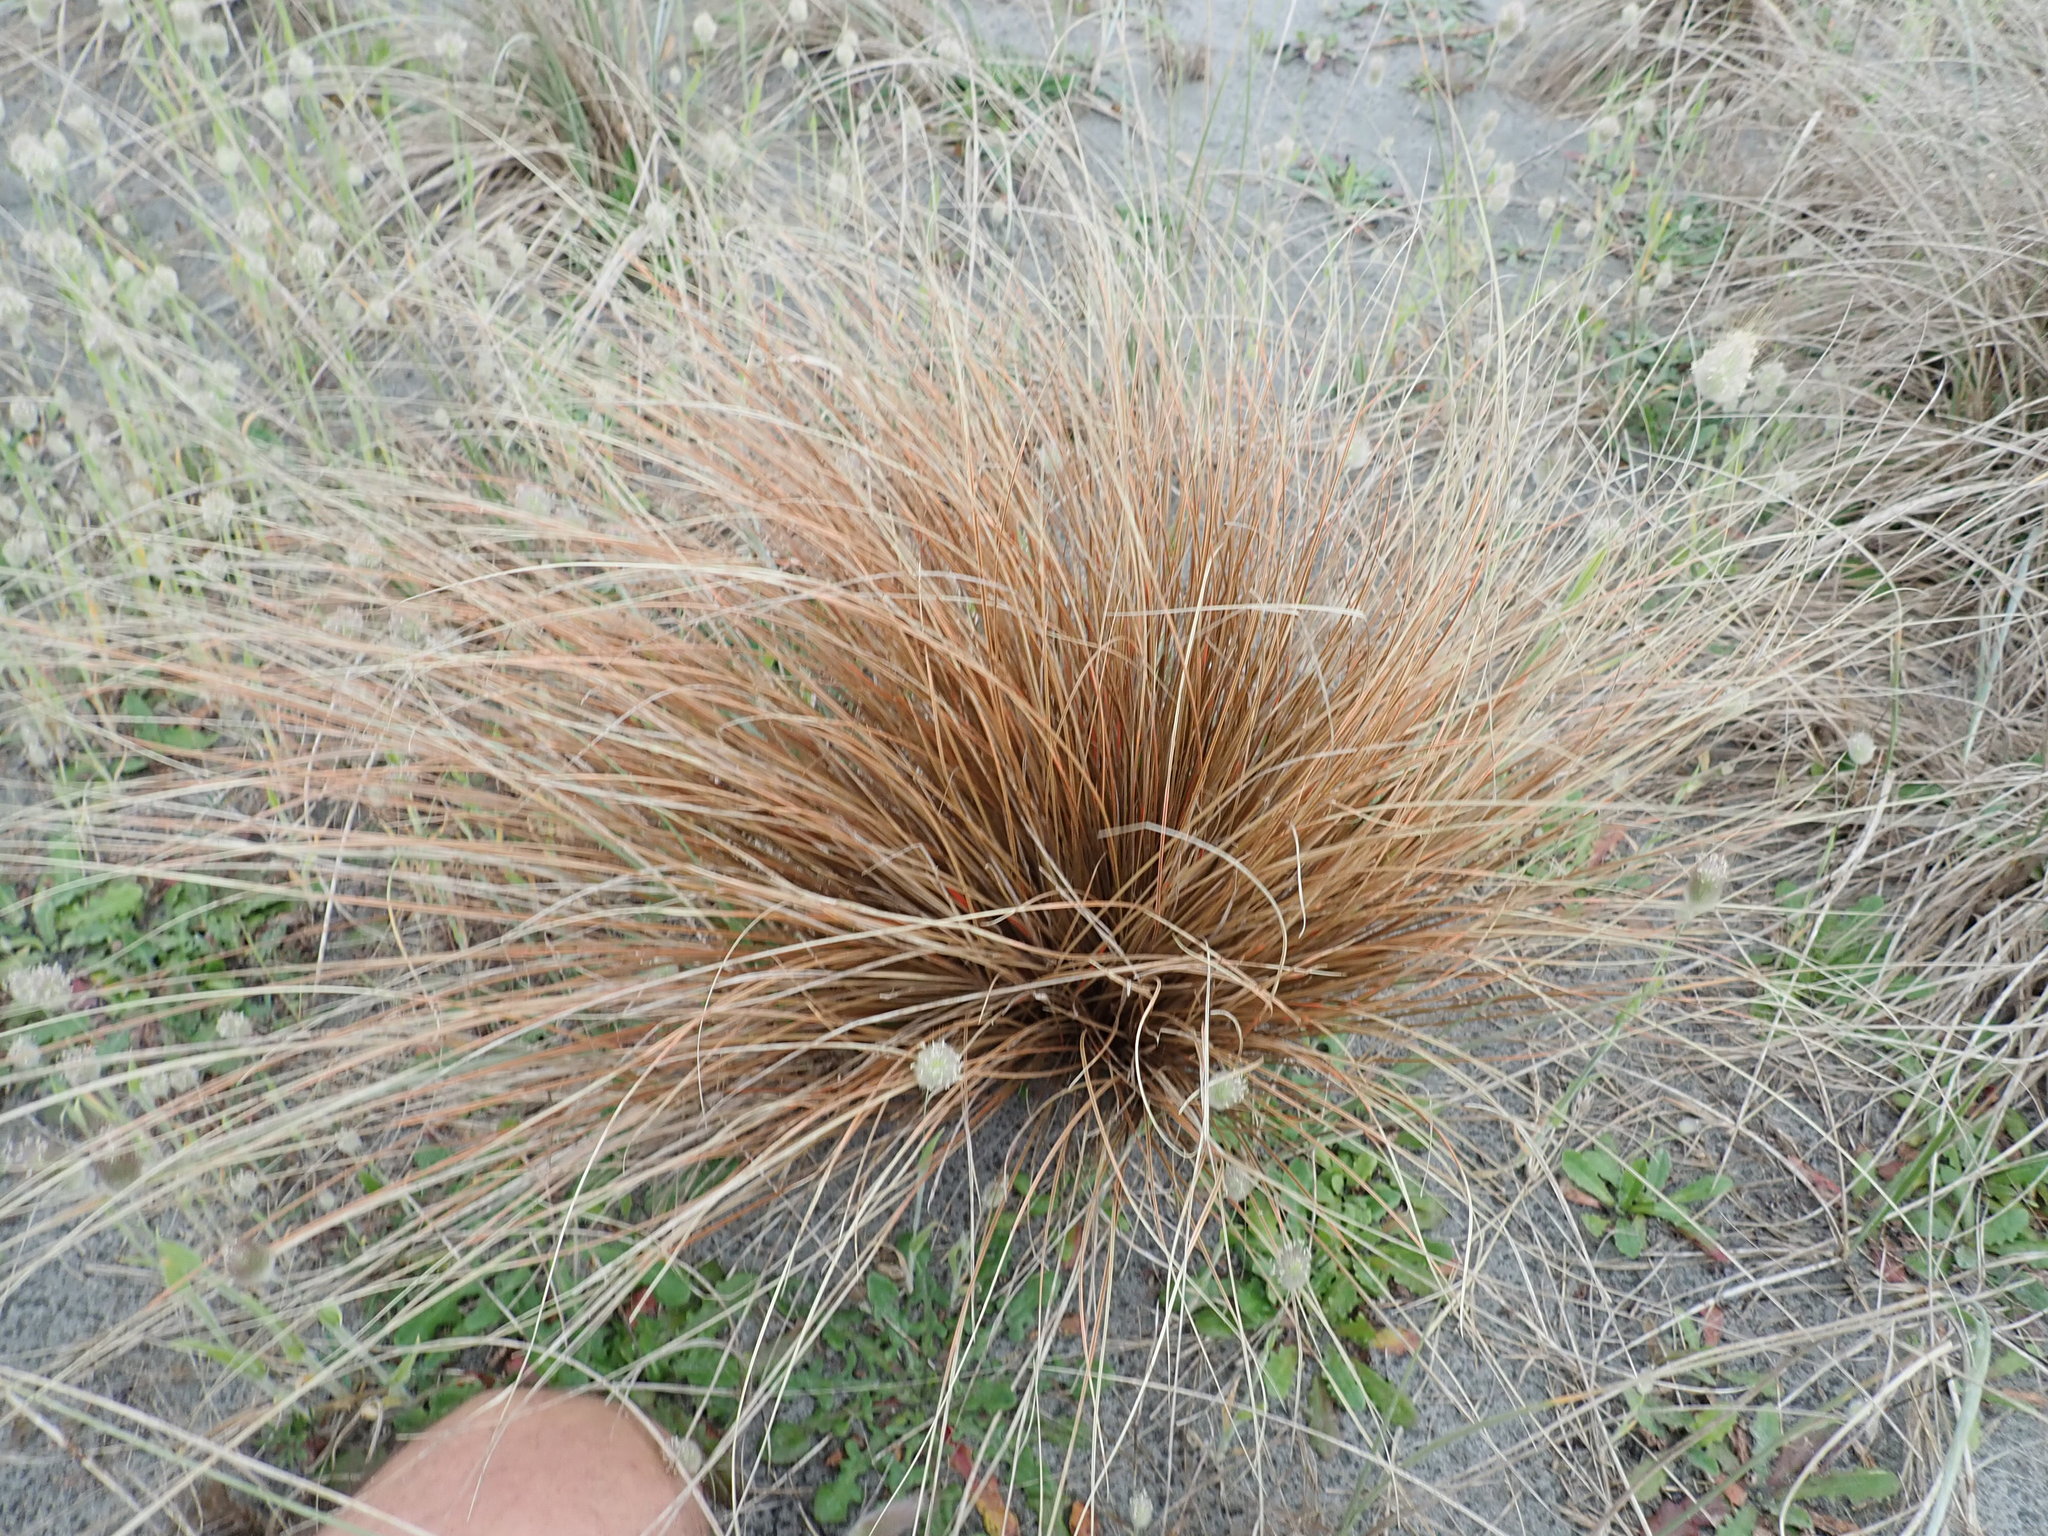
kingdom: Plantae
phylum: Tracheophyta
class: Liliopsida
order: Poales
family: Cyperaceae
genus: Carex
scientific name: Carex testacea
